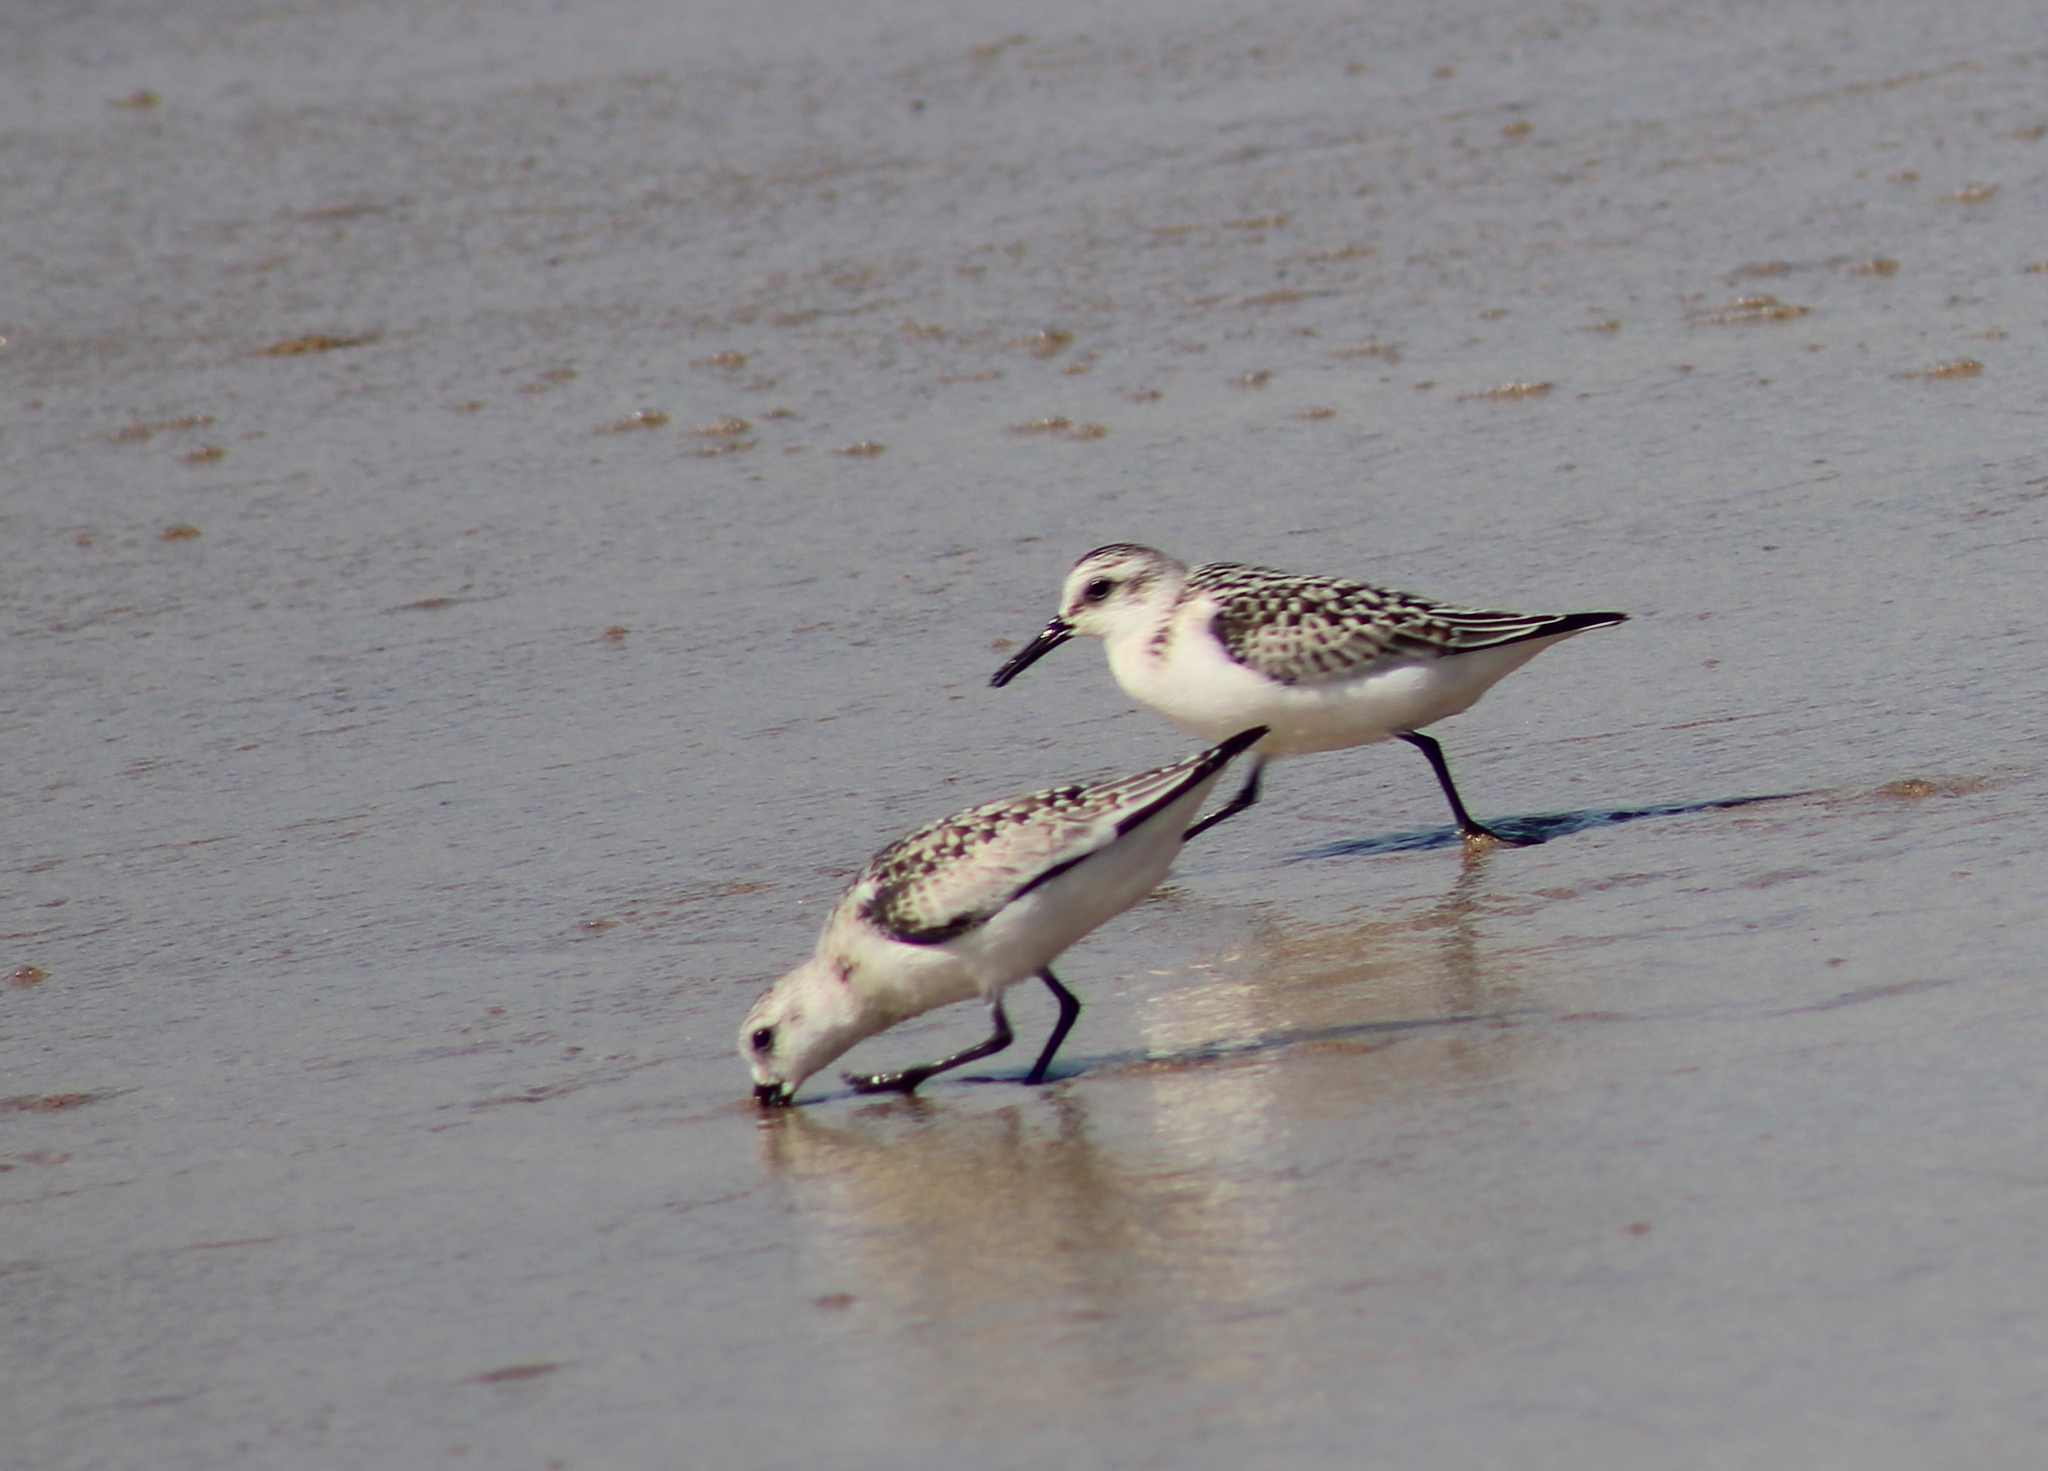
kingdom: Animalia
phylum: Chordata
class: Aves
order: Charadriiformes
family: Scolopacidae
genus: Calidris
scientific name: Calidris alba
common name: Sanderling
